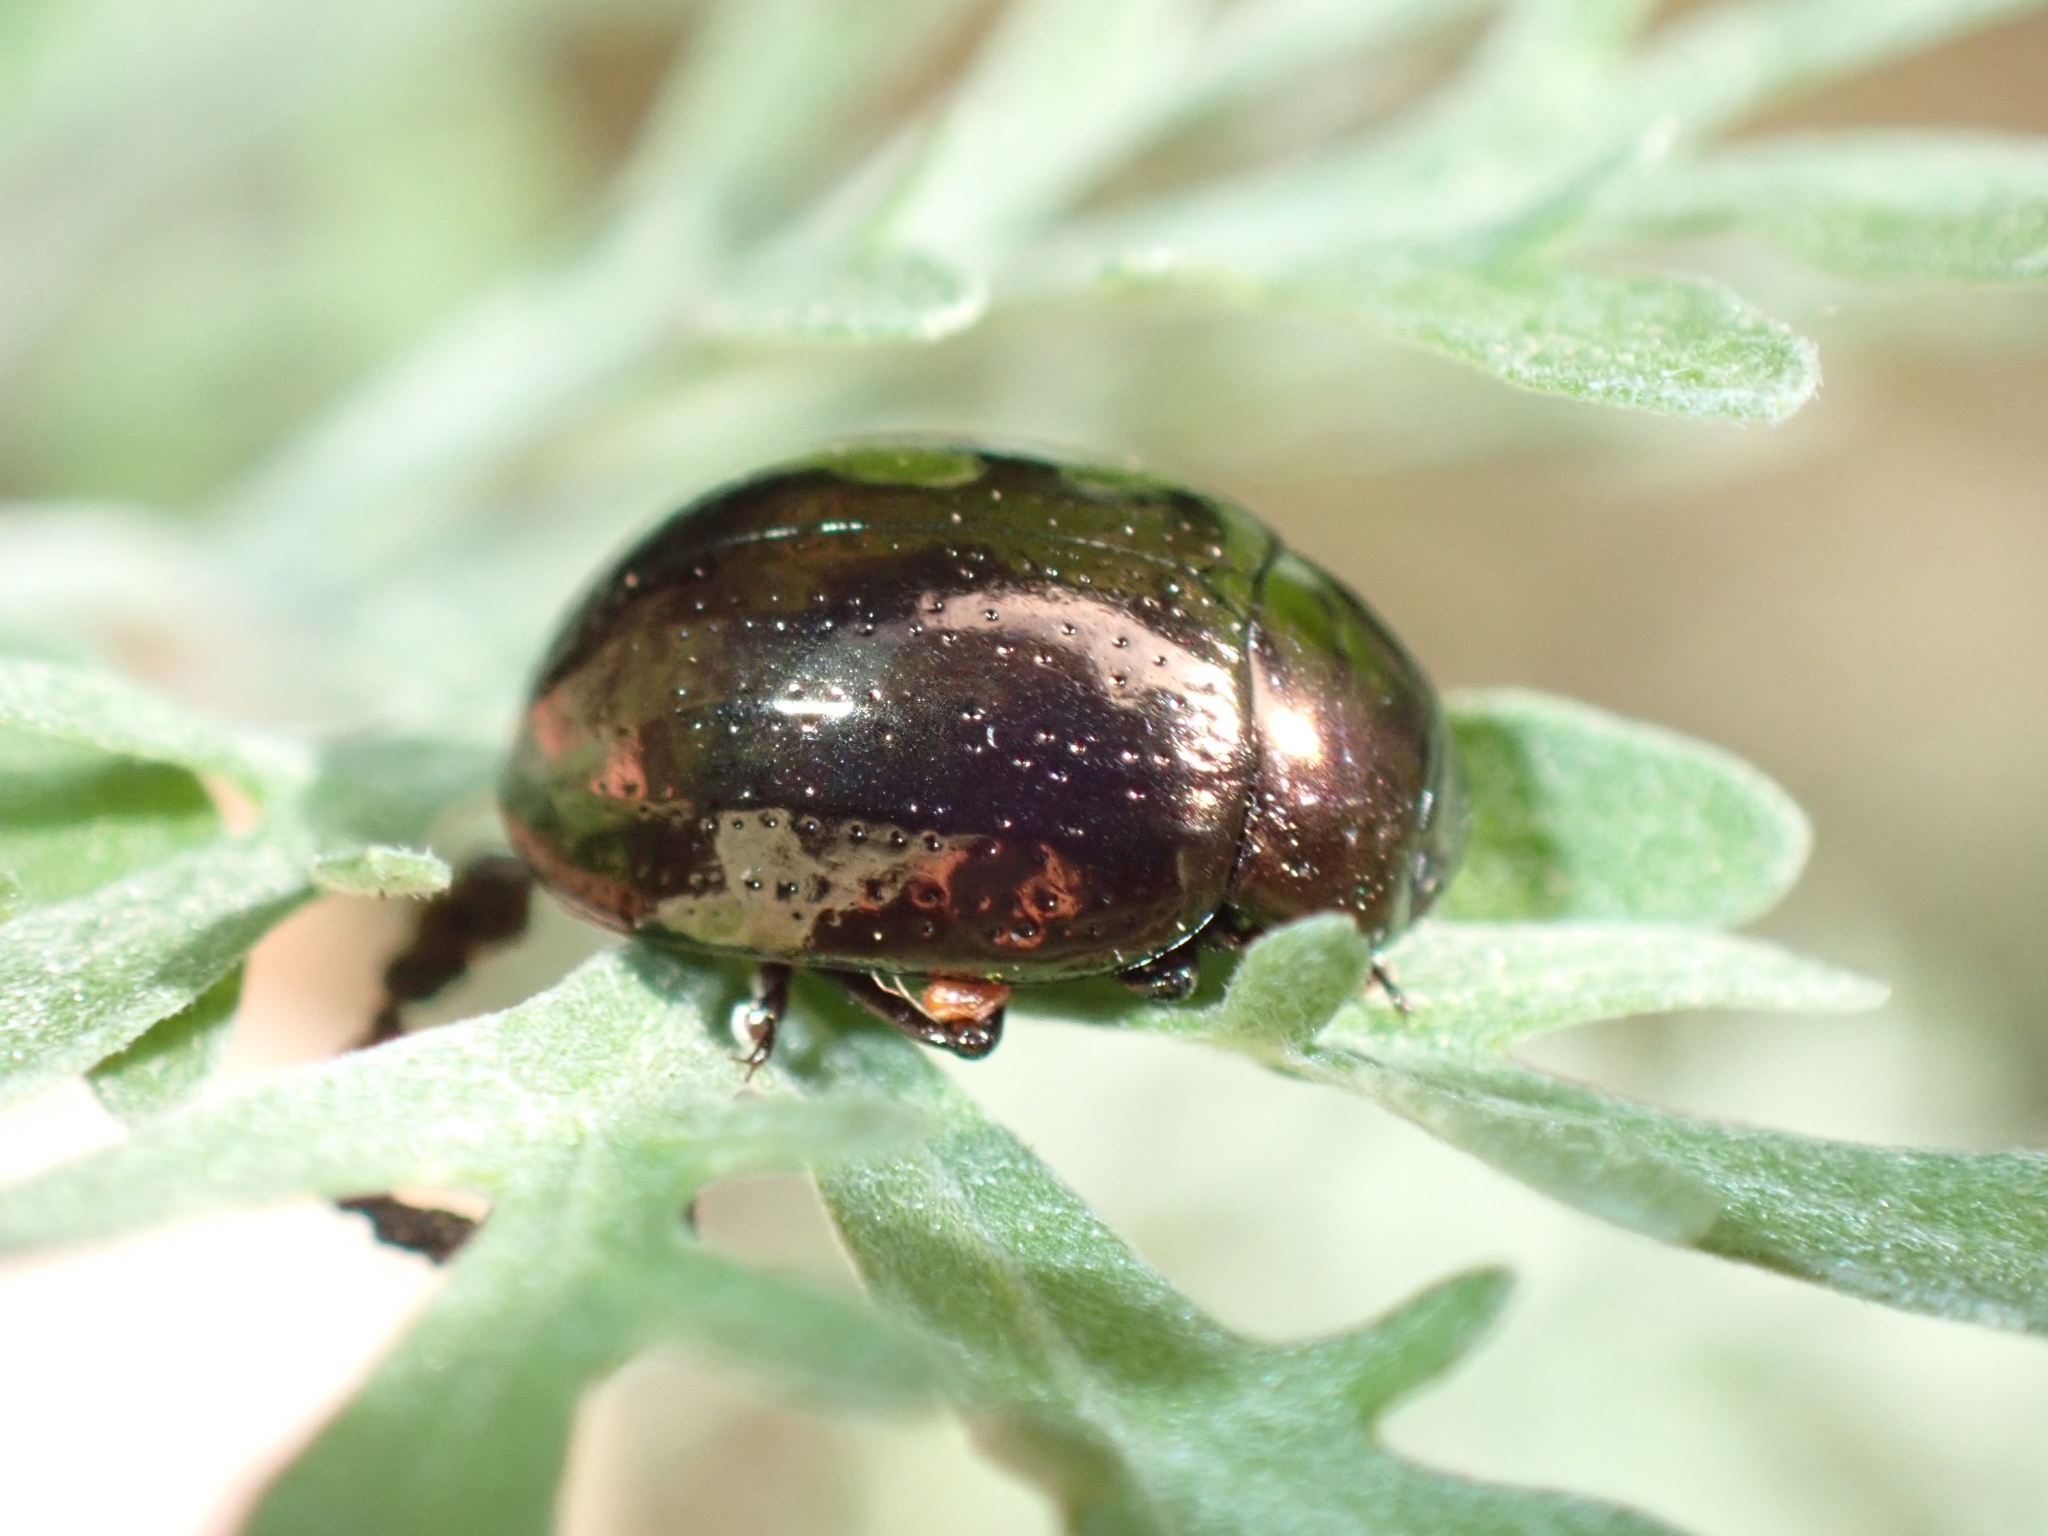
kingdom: Animalia
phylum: Arthropoda
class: Insecta
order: Coleoptera
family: Chrysomelidae
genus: Chrysolina
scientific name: Chrysolina geminata
